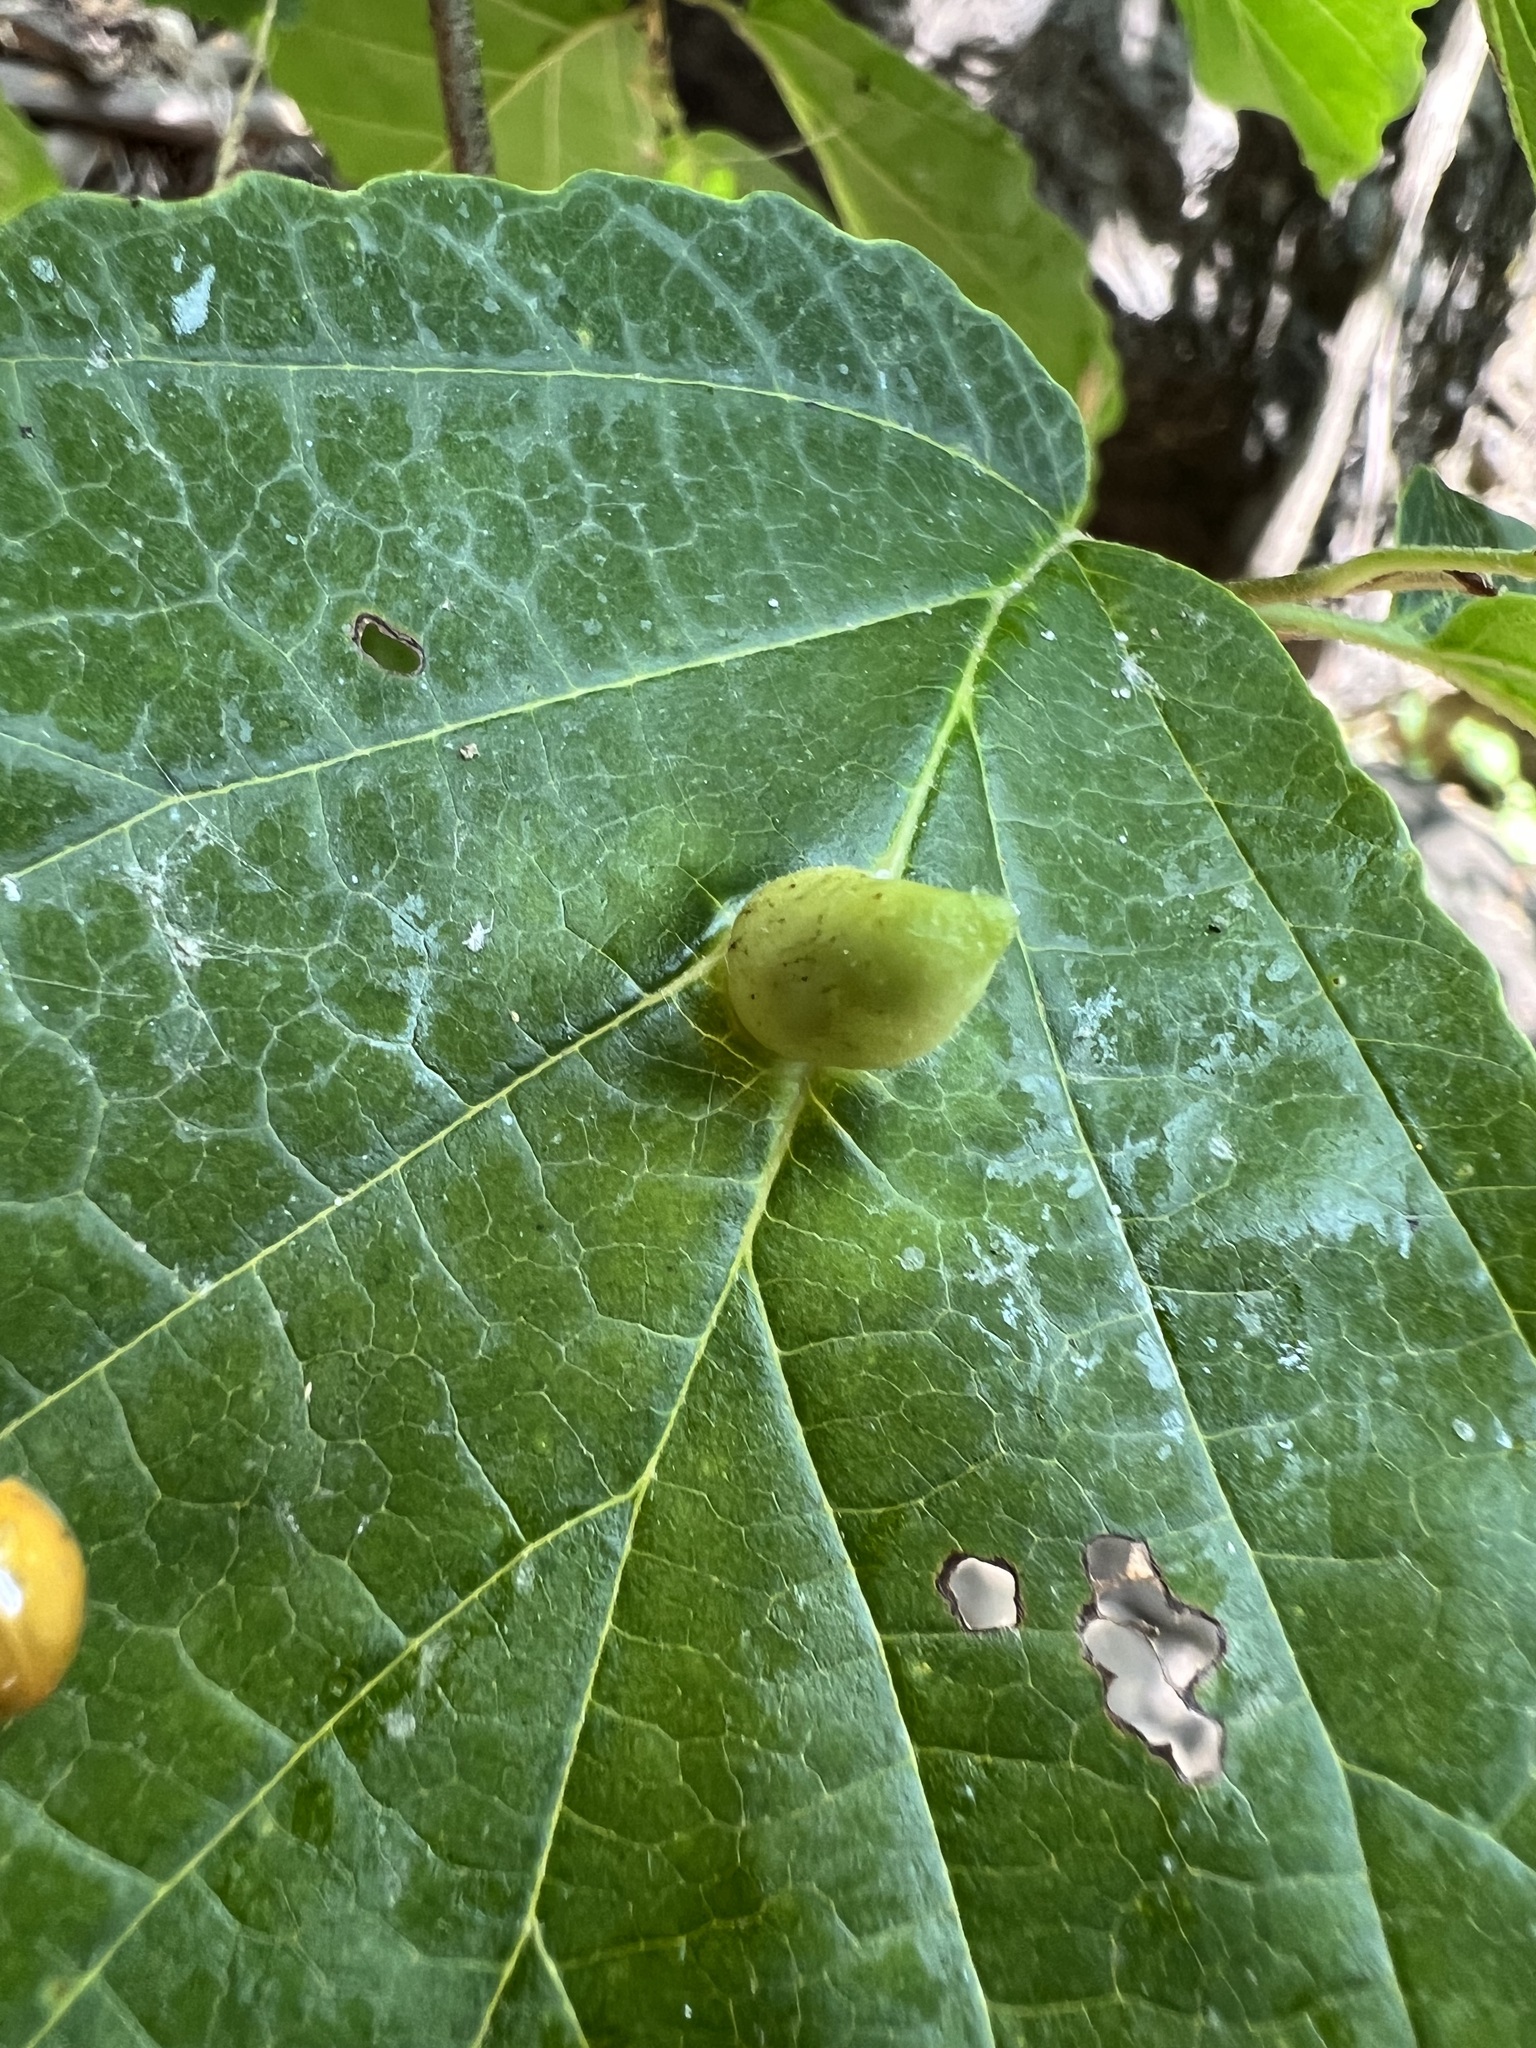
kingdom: Animalia
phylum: Arthropoda
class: Insecta
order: Hemiptera
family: Aphididae
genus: Hormaphis
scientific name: Hormaphis hamamelidis
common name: Witch-hazel cone gall aphid
